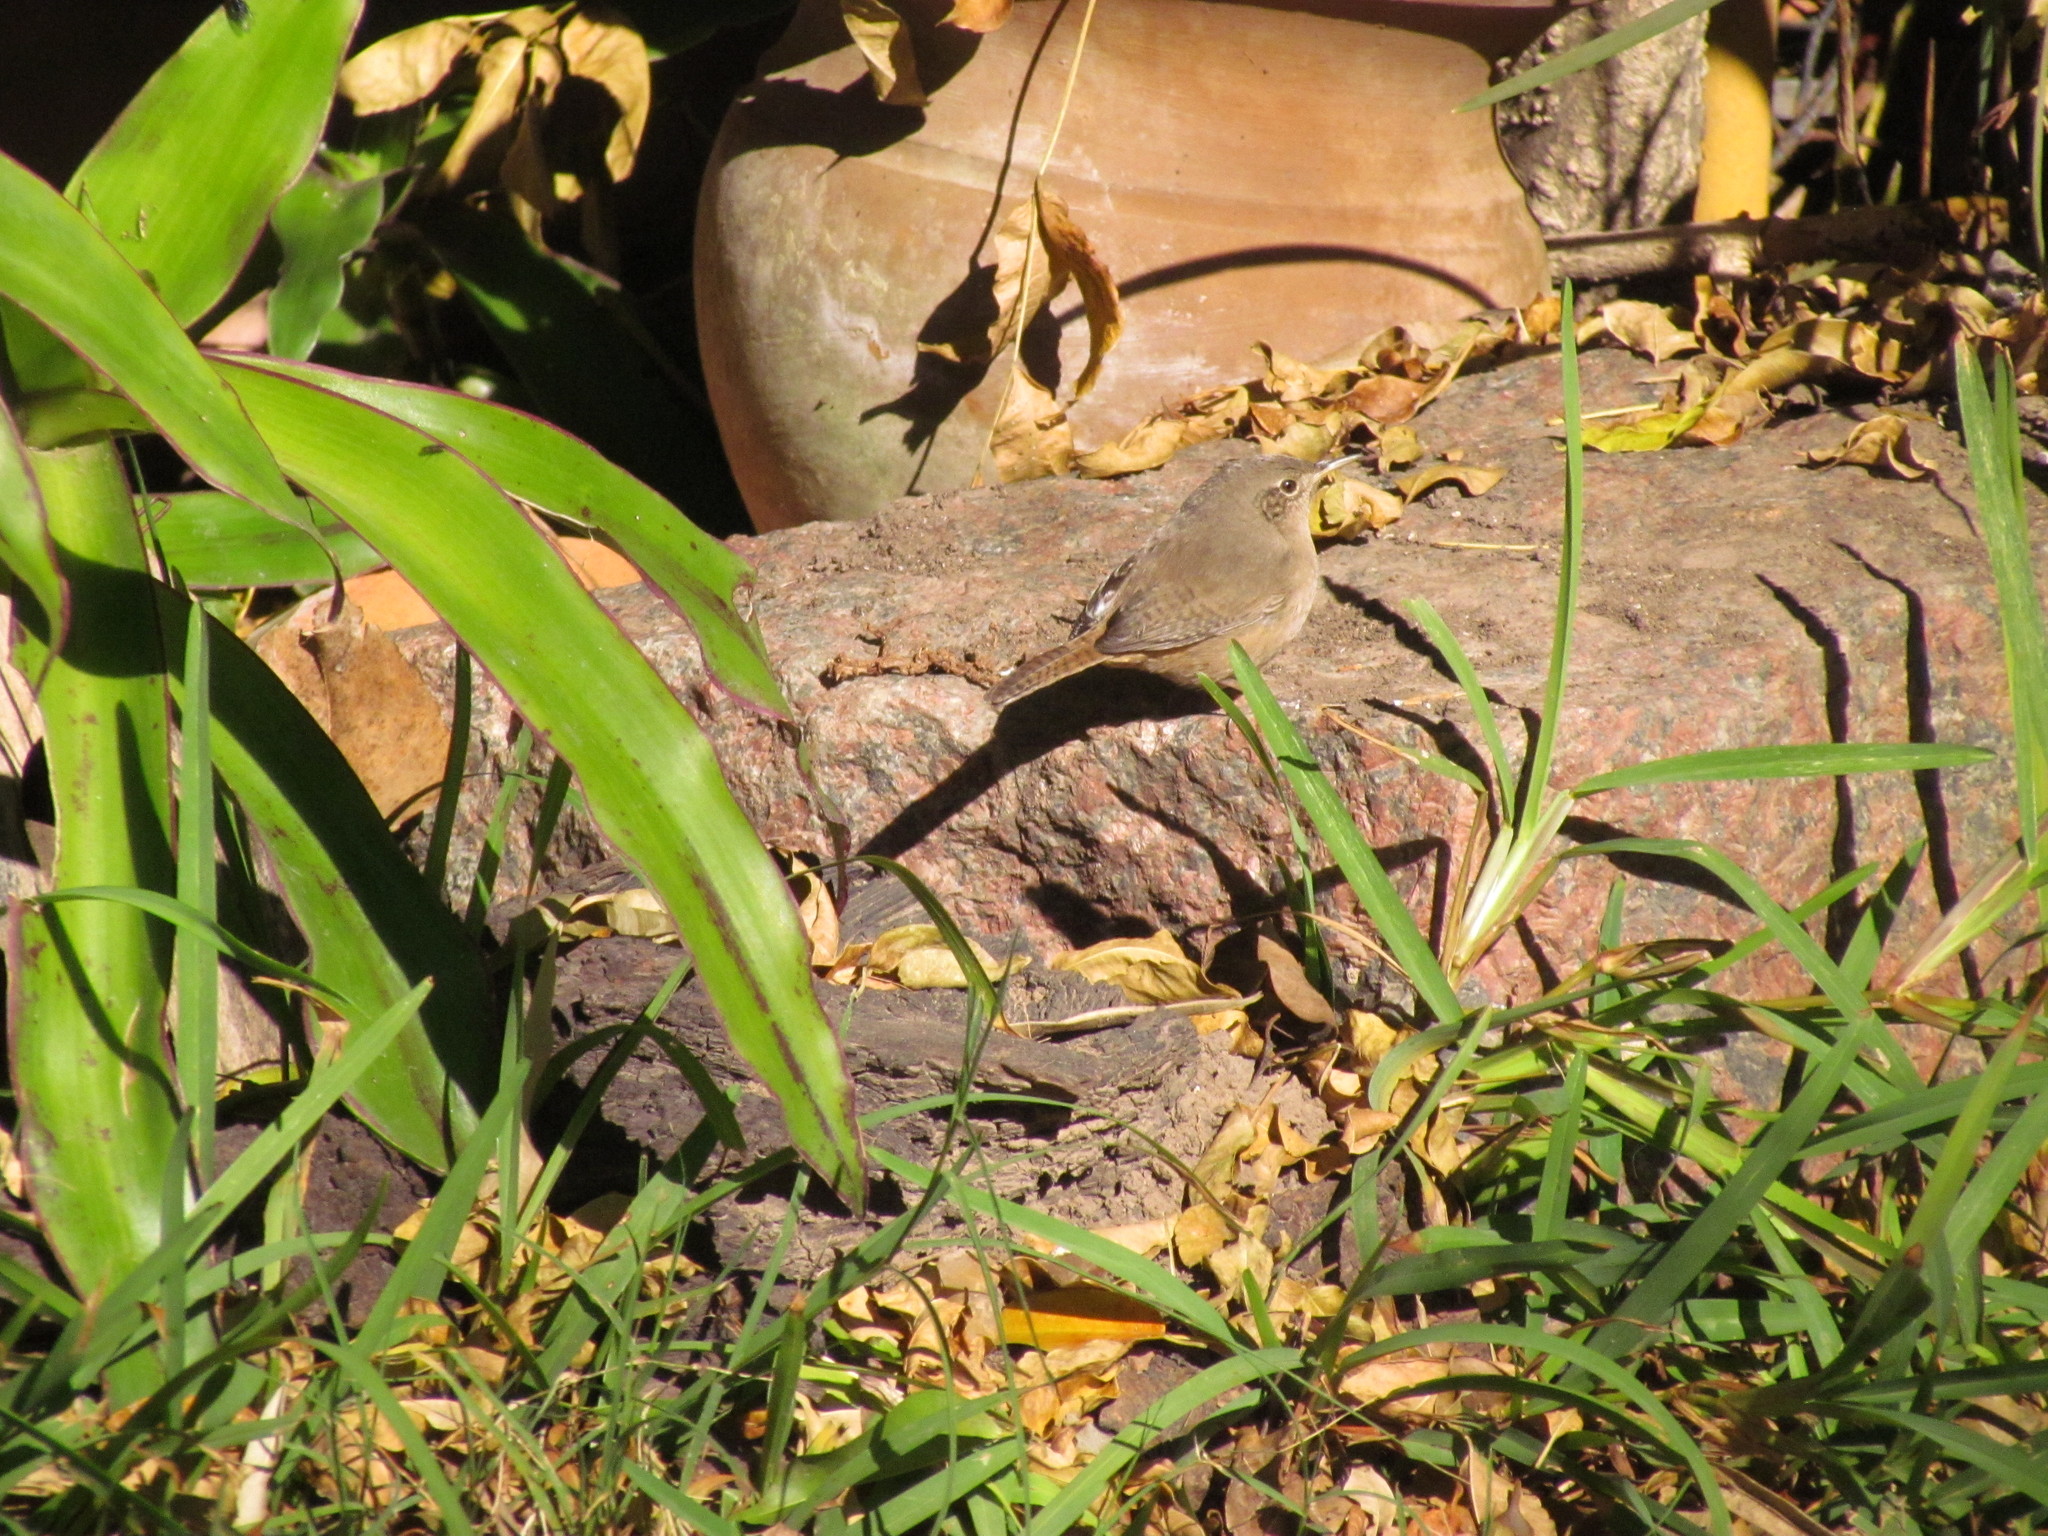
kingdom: Animalia
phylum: Chordata
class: Aves
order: Passeriformes
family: Troglodytidae
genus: Troglodytes
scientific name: Troglodytes aedon
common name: House wren
